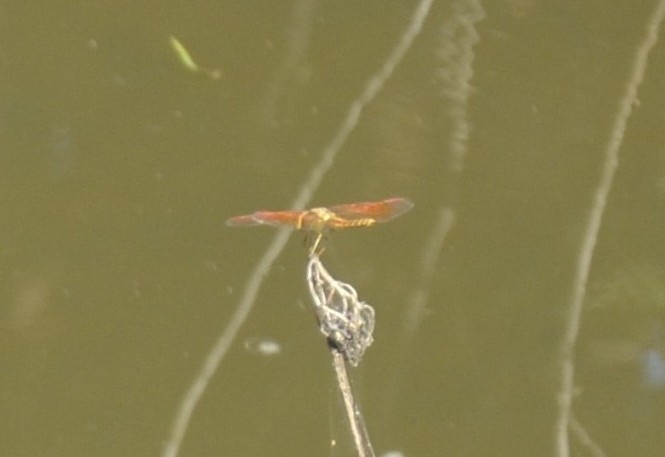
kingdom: Animalia
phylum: Arthropoda
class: Insecta
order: Odonata
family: Libellulidae
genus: Brachythemis
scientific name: Brachythemis contaminata
